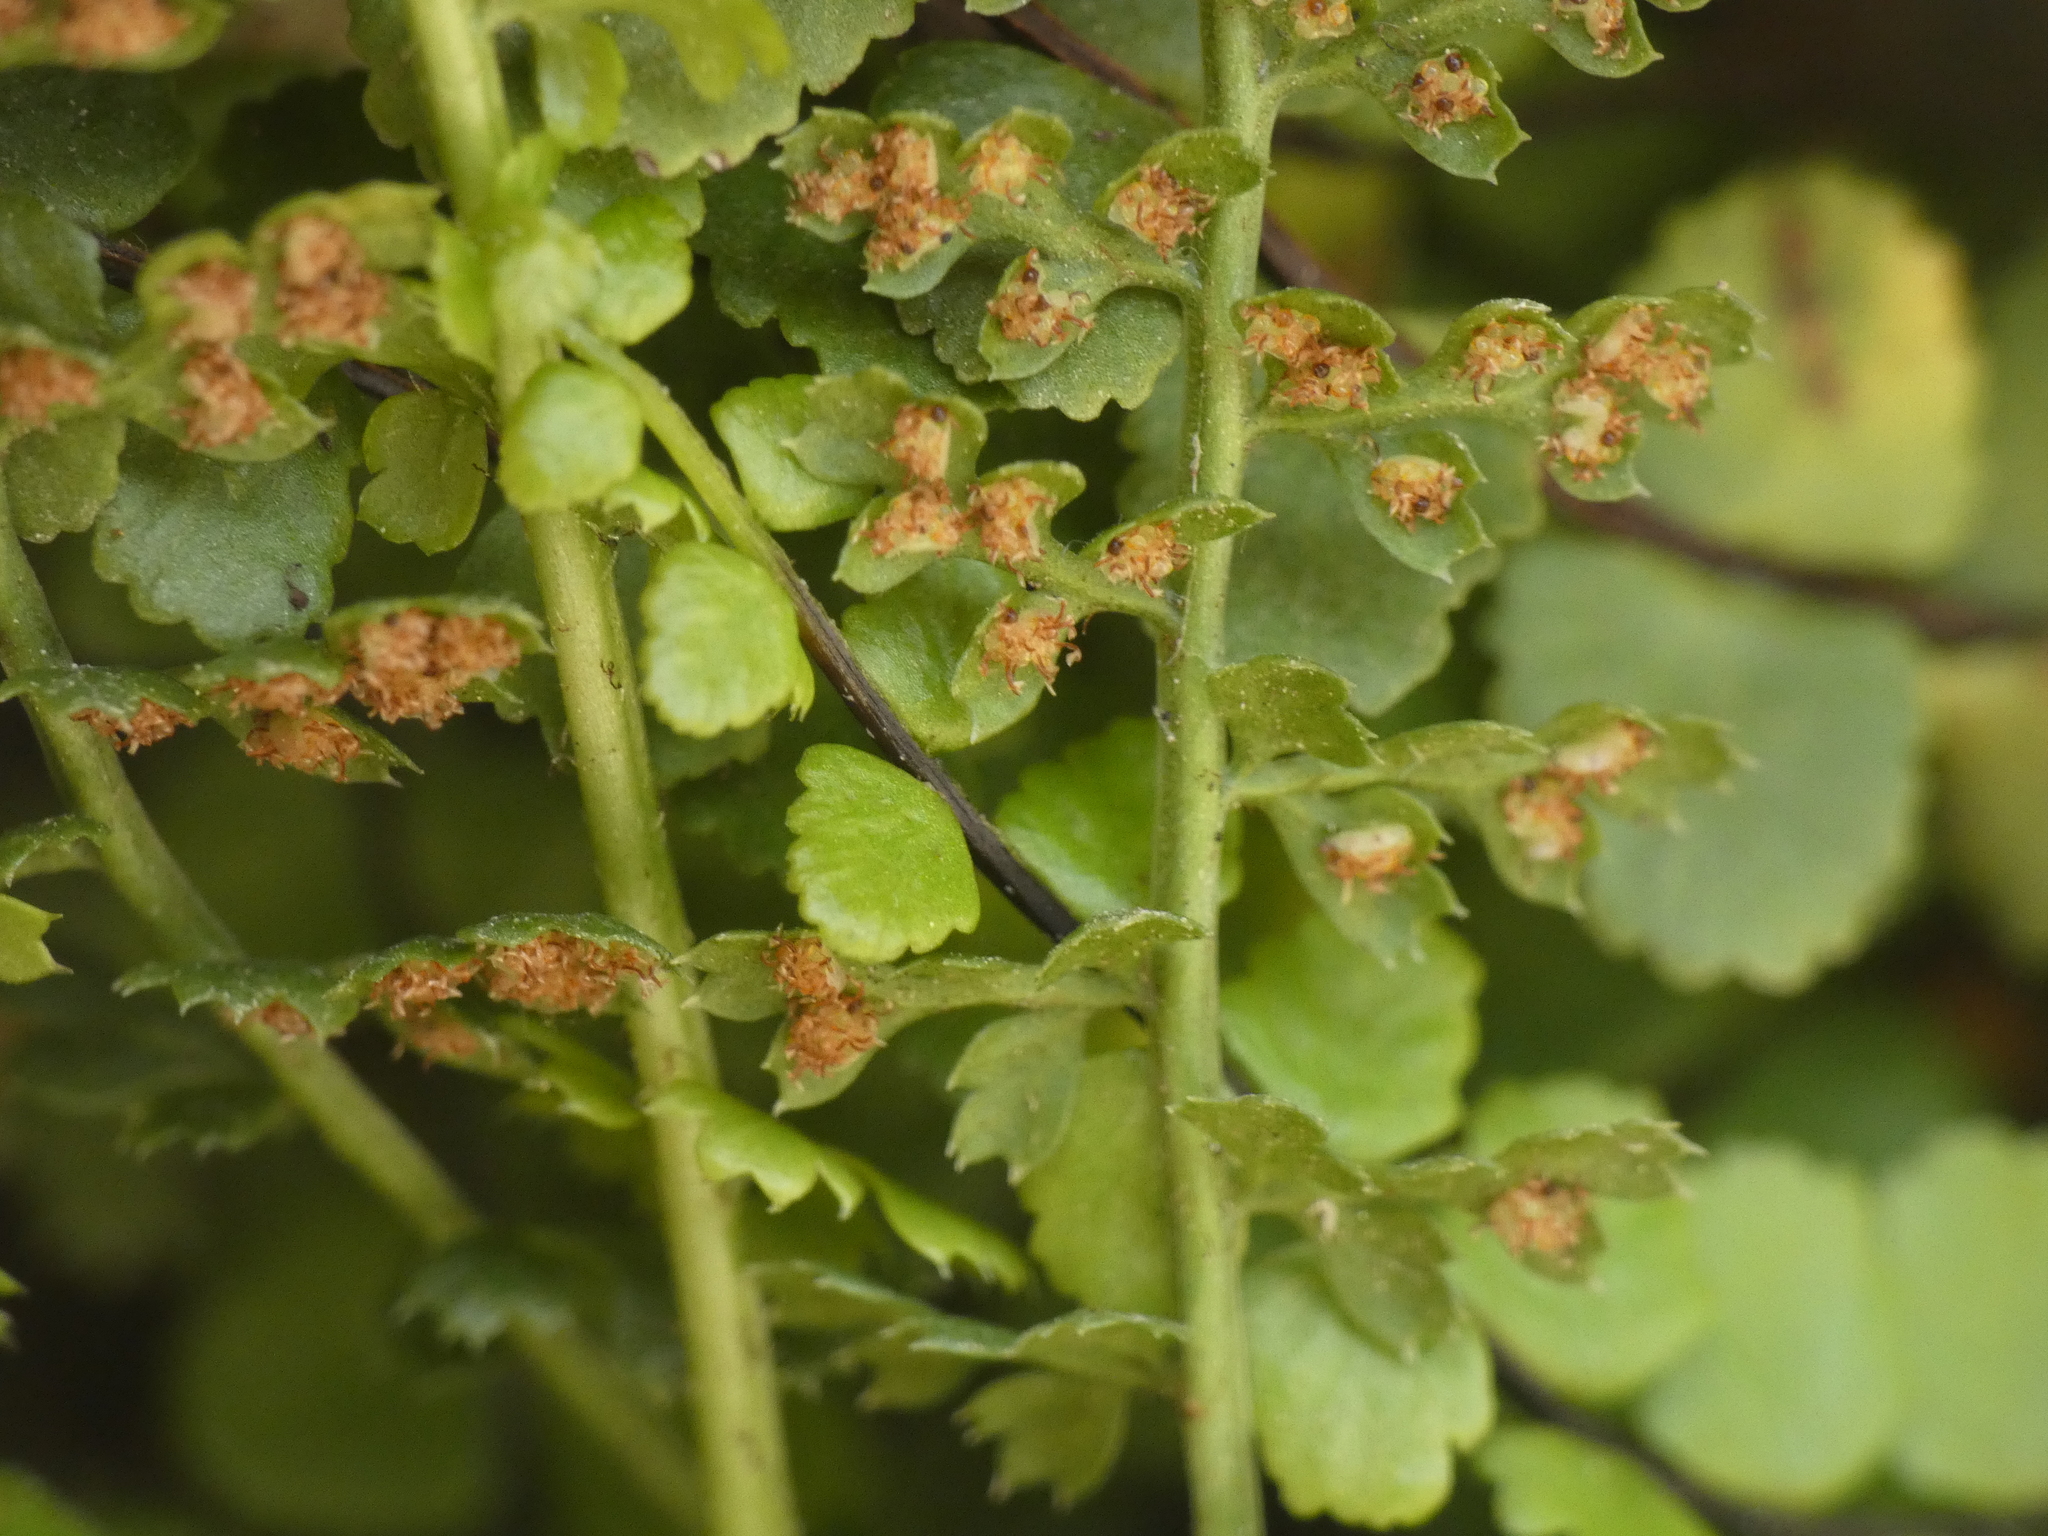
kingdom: Plantae
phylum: Tracheophyta
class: Polypodiopsida
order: Polypodiales
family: Aspleniaceae
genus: Asplenium
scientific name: Asplenium fontanum
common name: Fountain spleenwort
